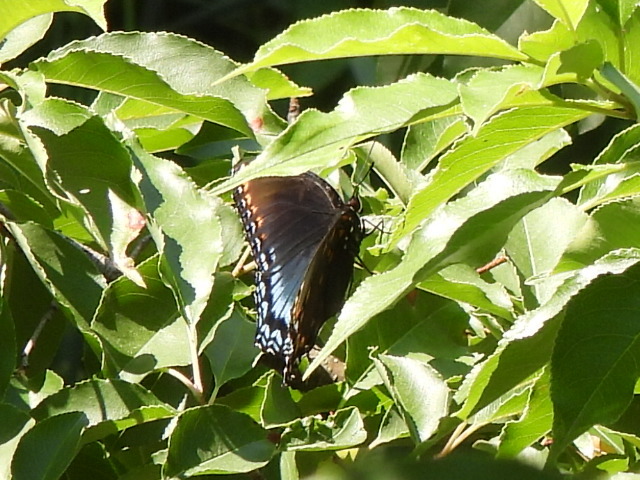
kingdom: Animalia
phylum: Arthropoda
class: Insecta
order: Lepidoptera
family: Nymphalidae
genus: Limenitis
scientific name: Limenitis astyanax
